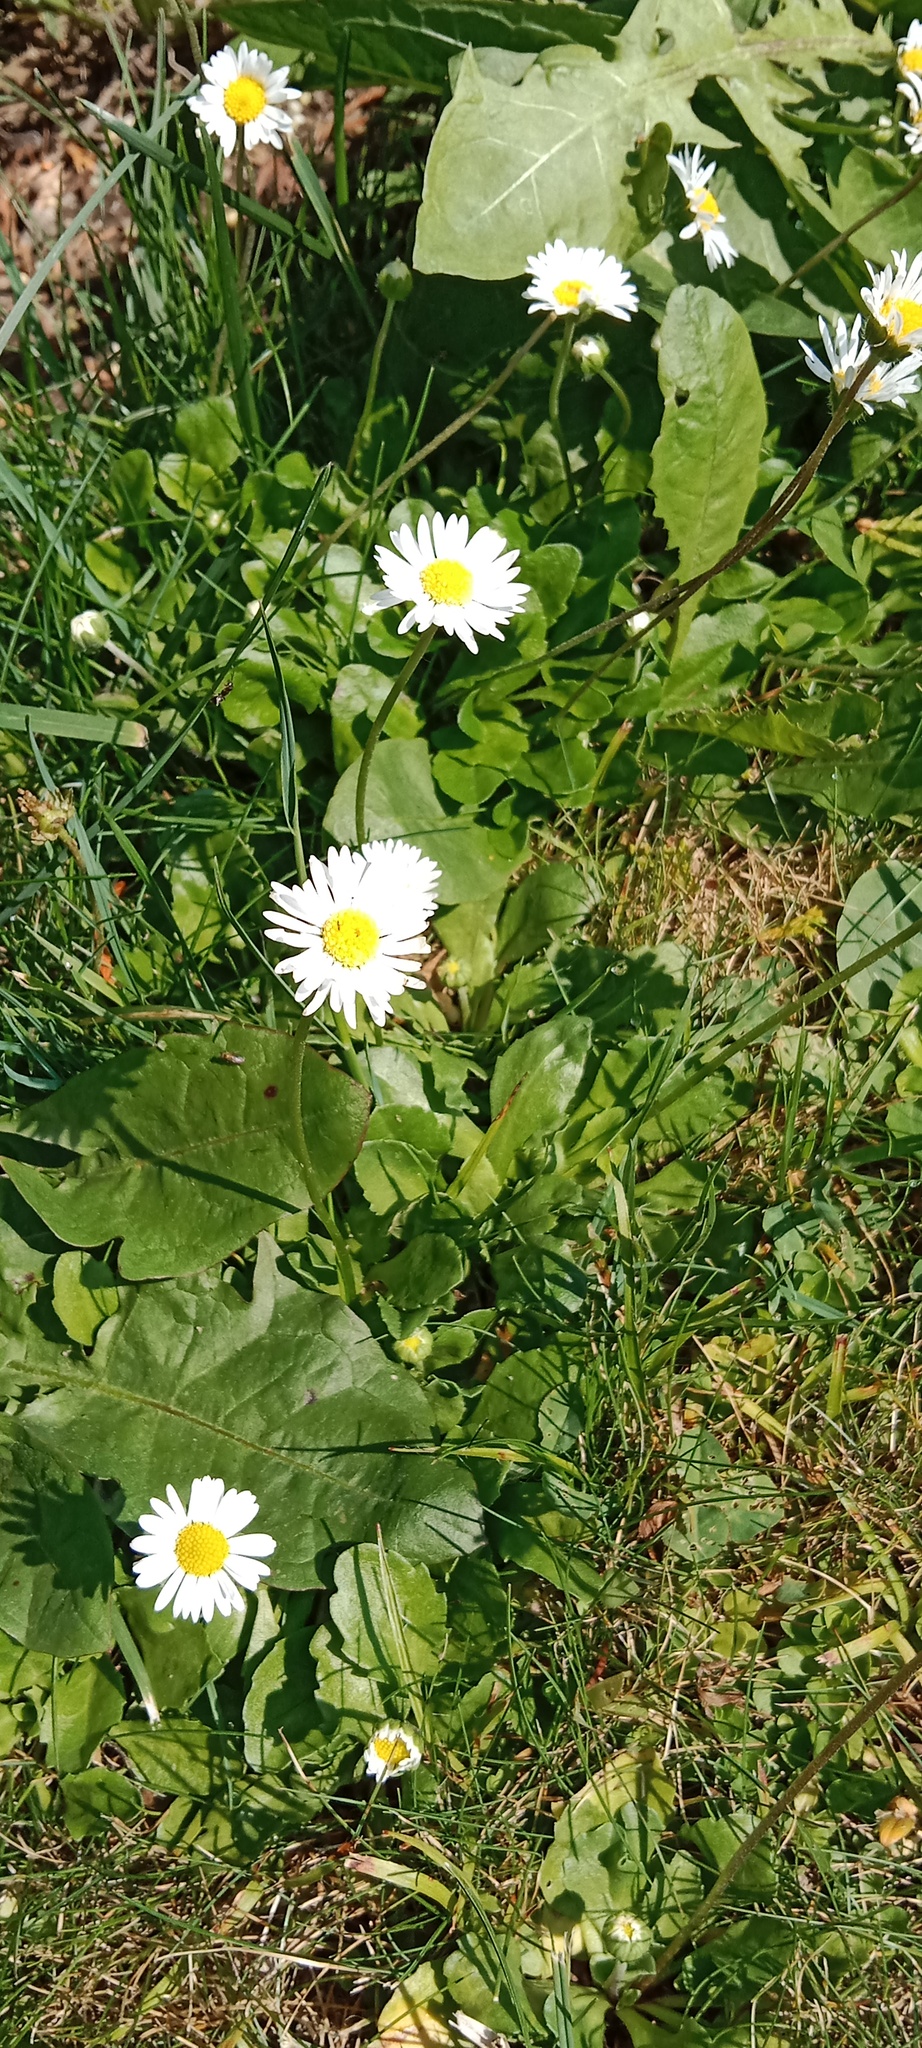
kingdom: Plantae
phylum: Tracheophyta
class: Magnoliopsida
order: Asterales
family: Asteraceae
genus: Bellis
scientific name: Bellis perennis
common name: Lawndaisy
